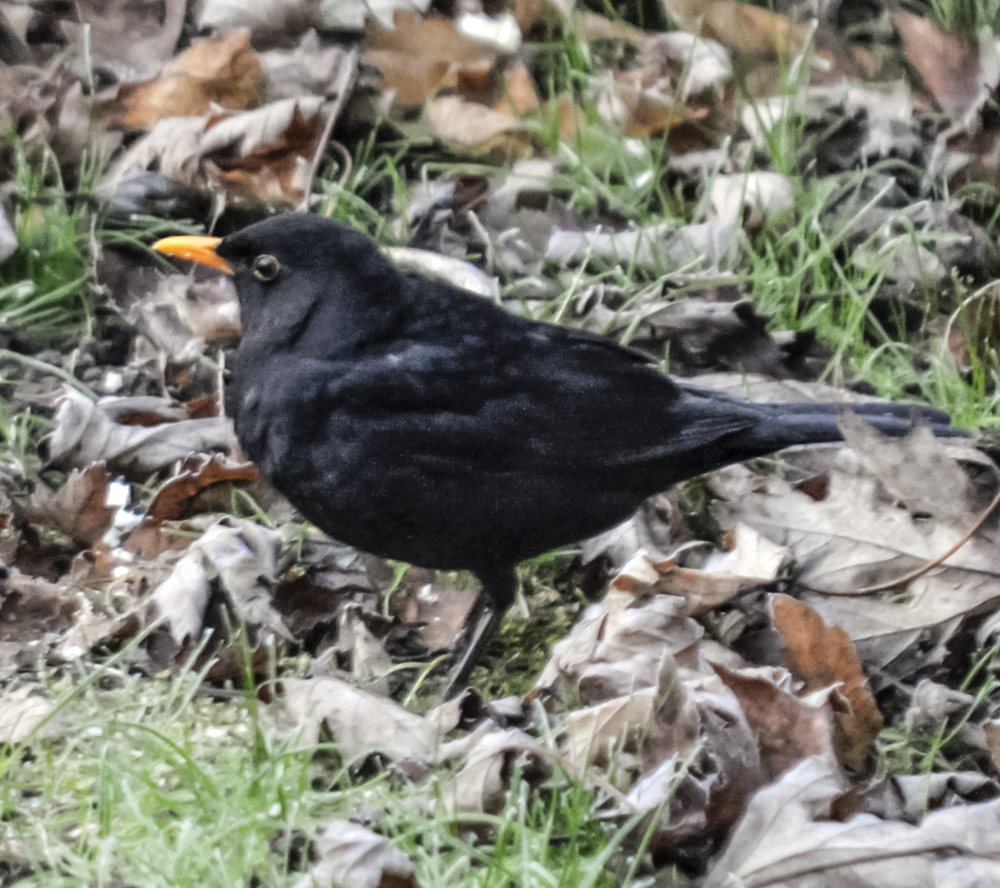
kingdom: Animalia
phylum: Chordata
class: Aves
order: Passeriformes
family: Turdidae
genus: Turdus
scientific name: Turdus merula
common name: Common blackbird
